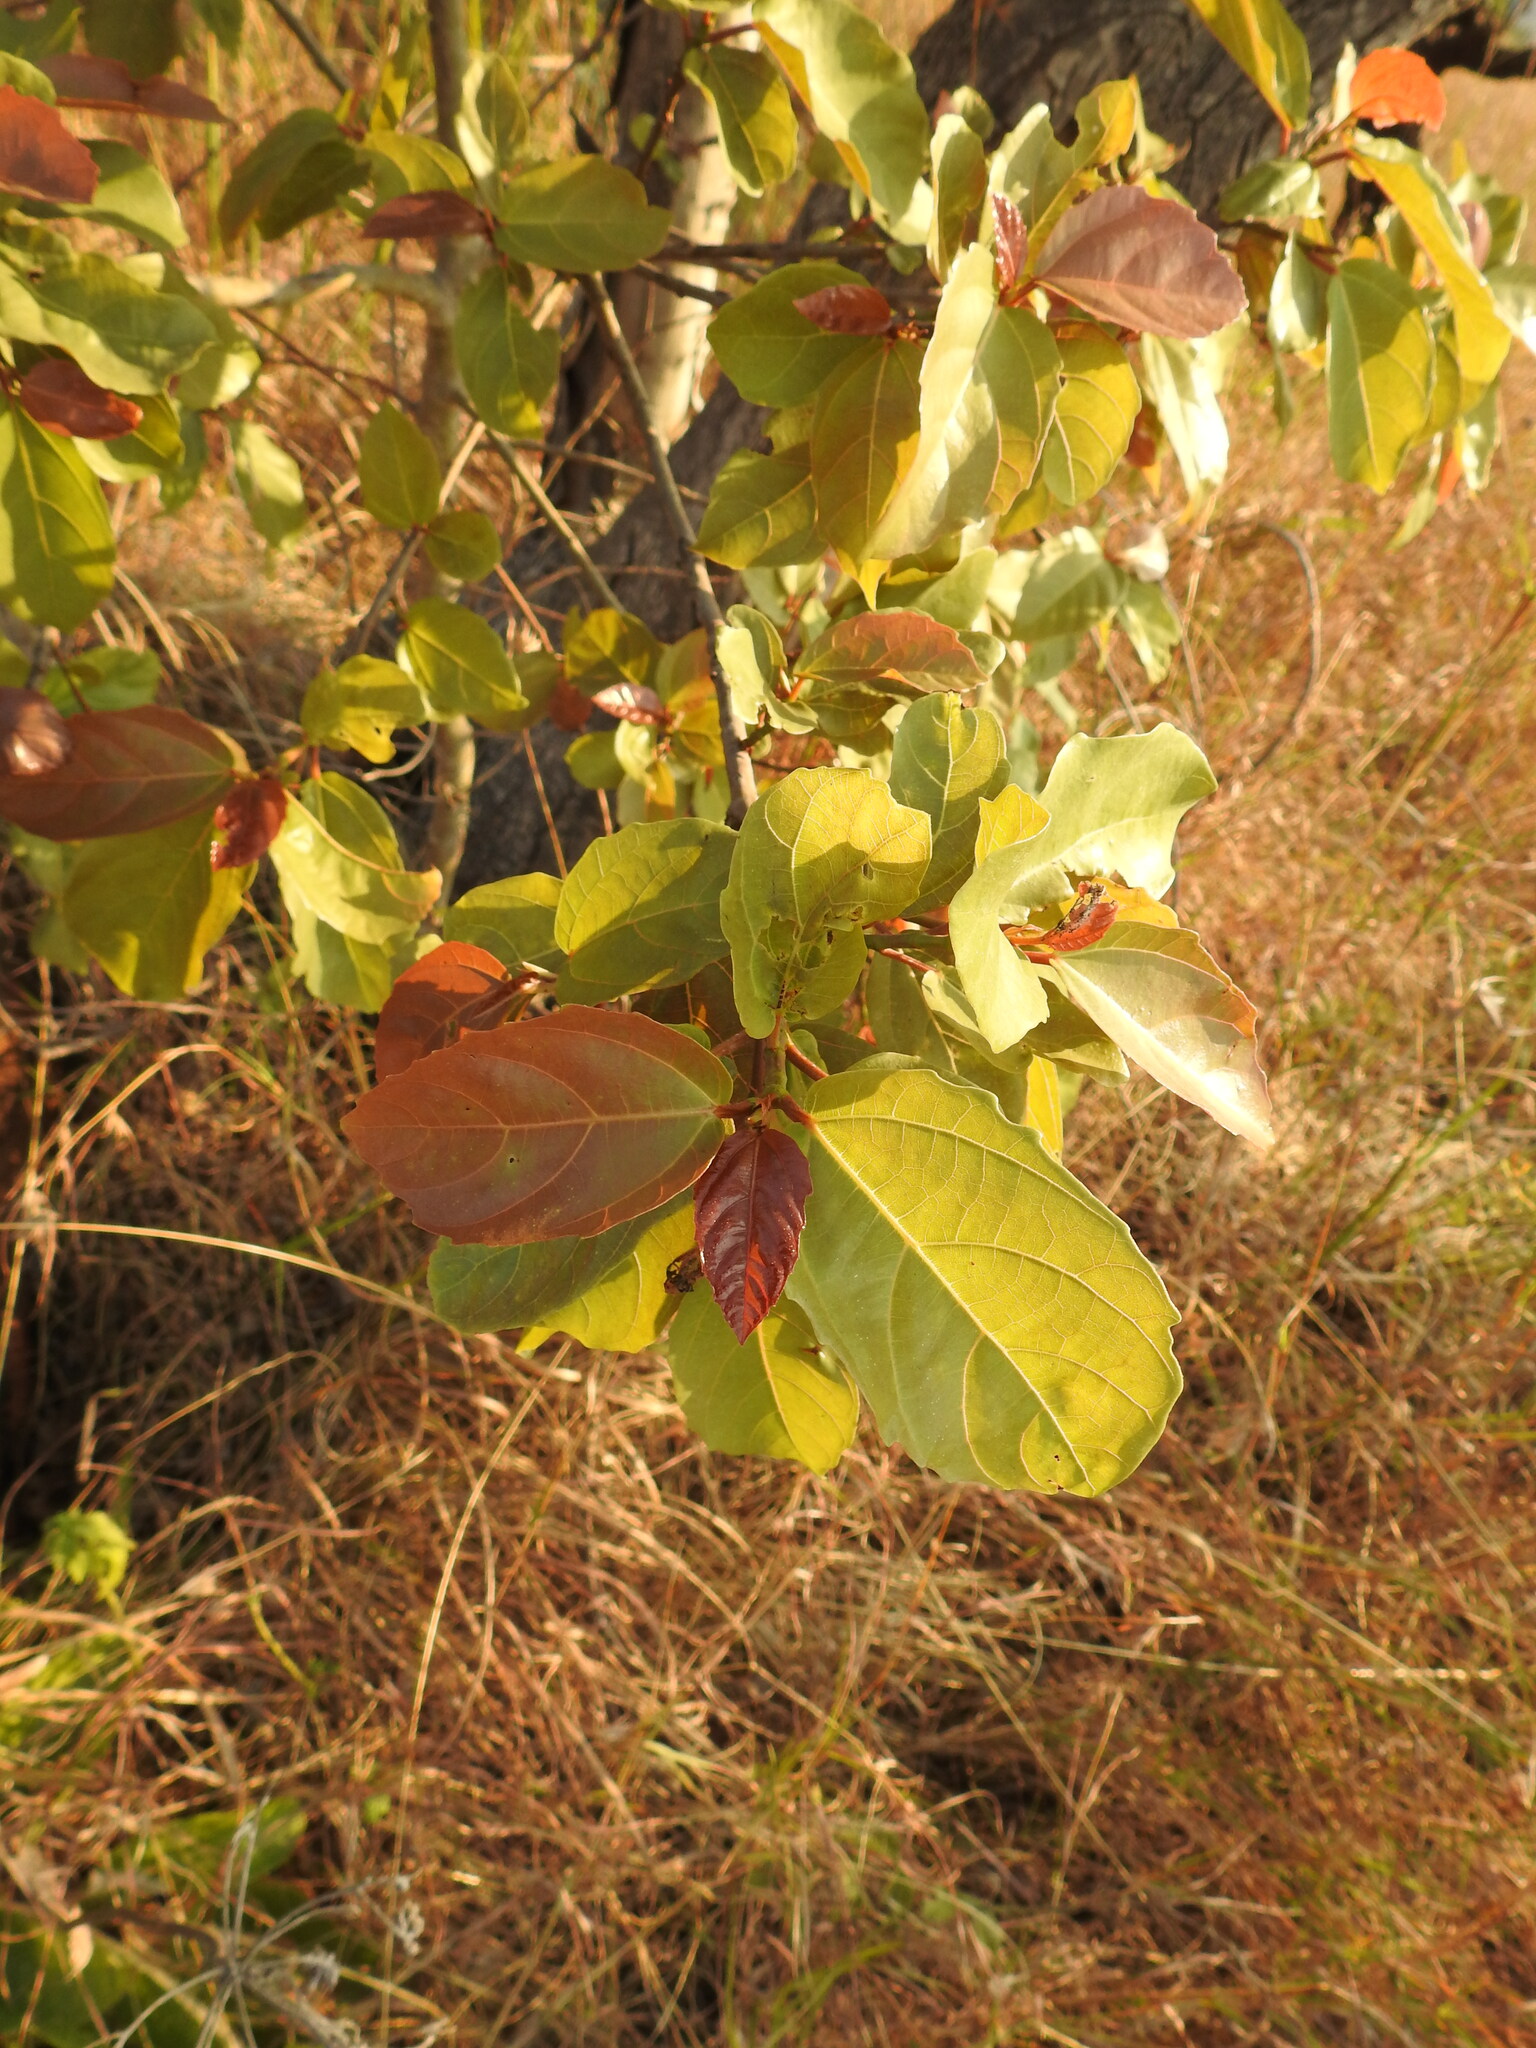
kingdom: Plantae
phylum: Tracheophyta
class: Magnoliopsida
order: Rosales
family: Moraceae
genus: Ficus
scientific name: Ficus sur
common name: Cape fig
